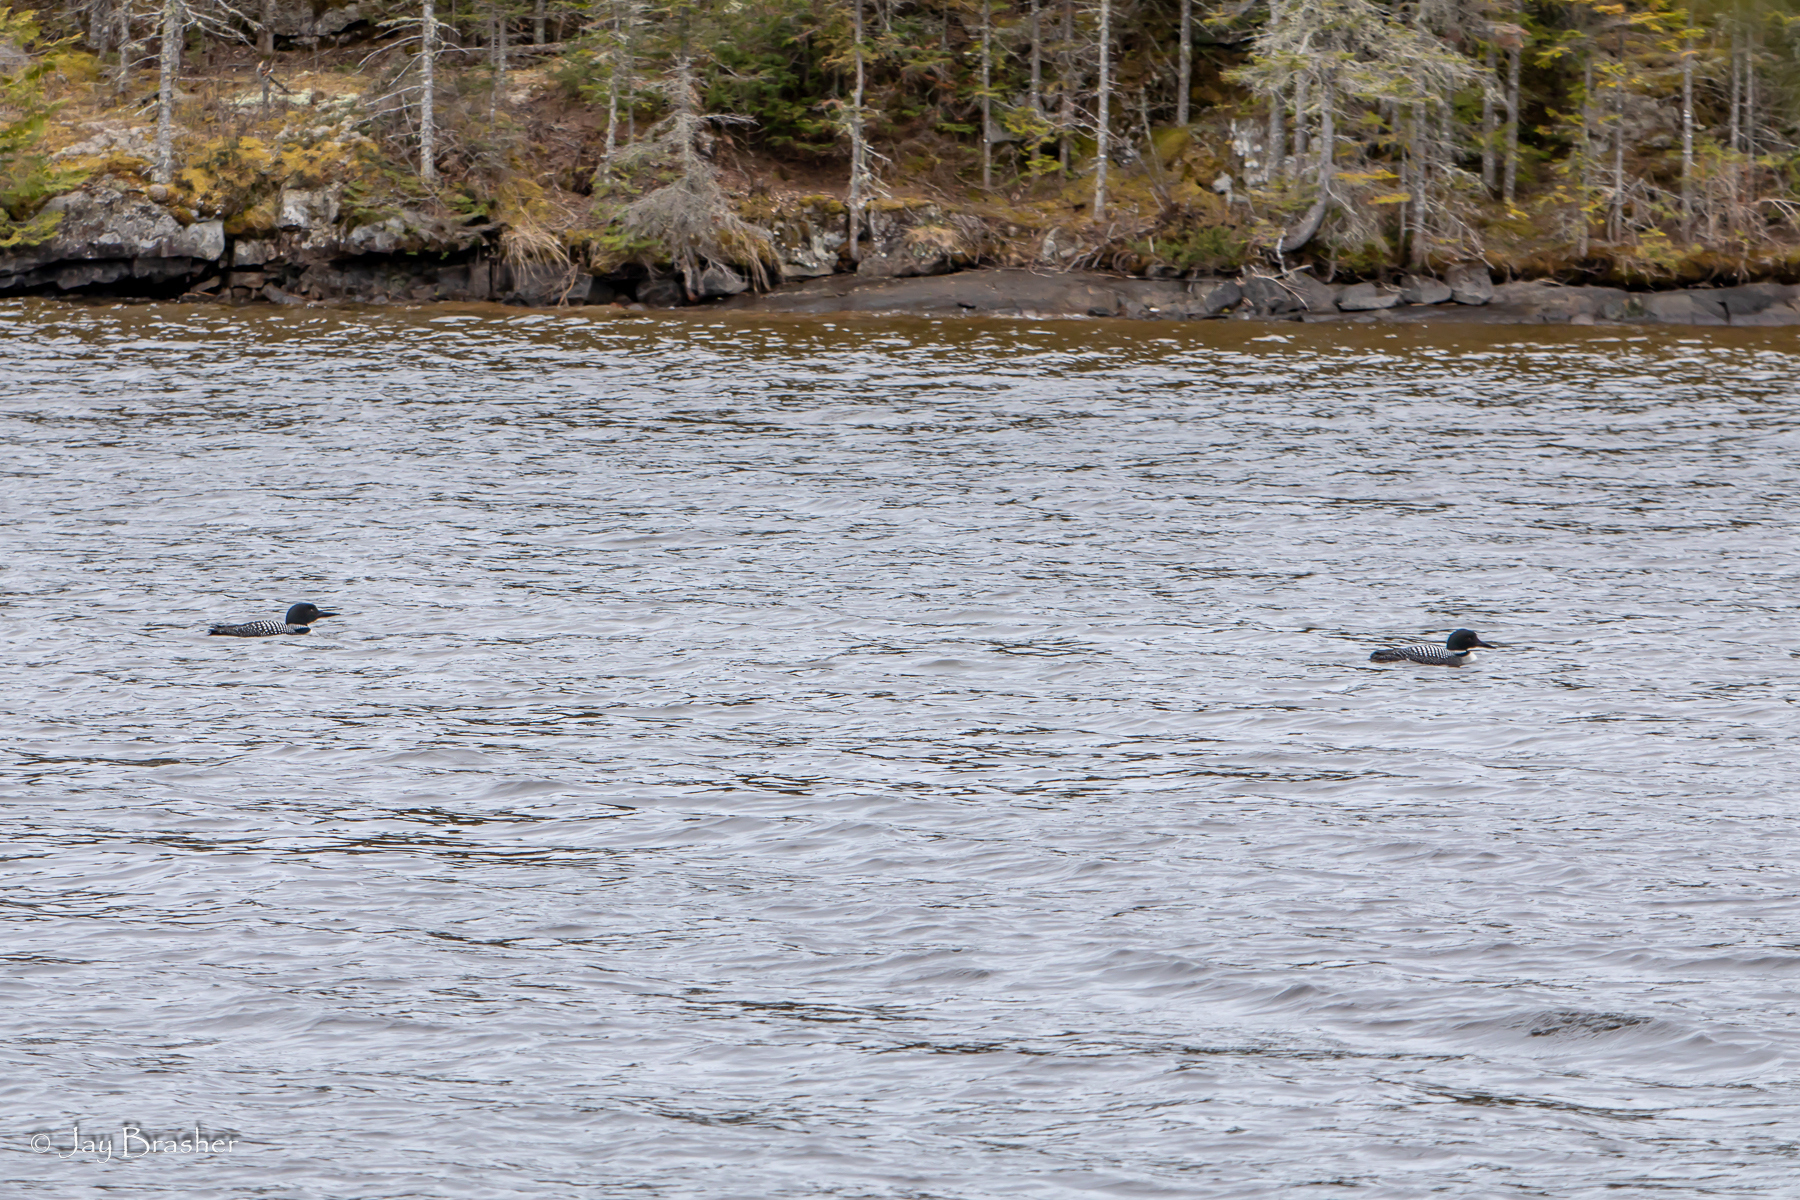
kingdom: Animalia
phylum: Chordata
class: Aves
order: Gaviiformes
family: Gaviidae
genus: Gavia
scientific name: Gavia immer
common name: Common loon
